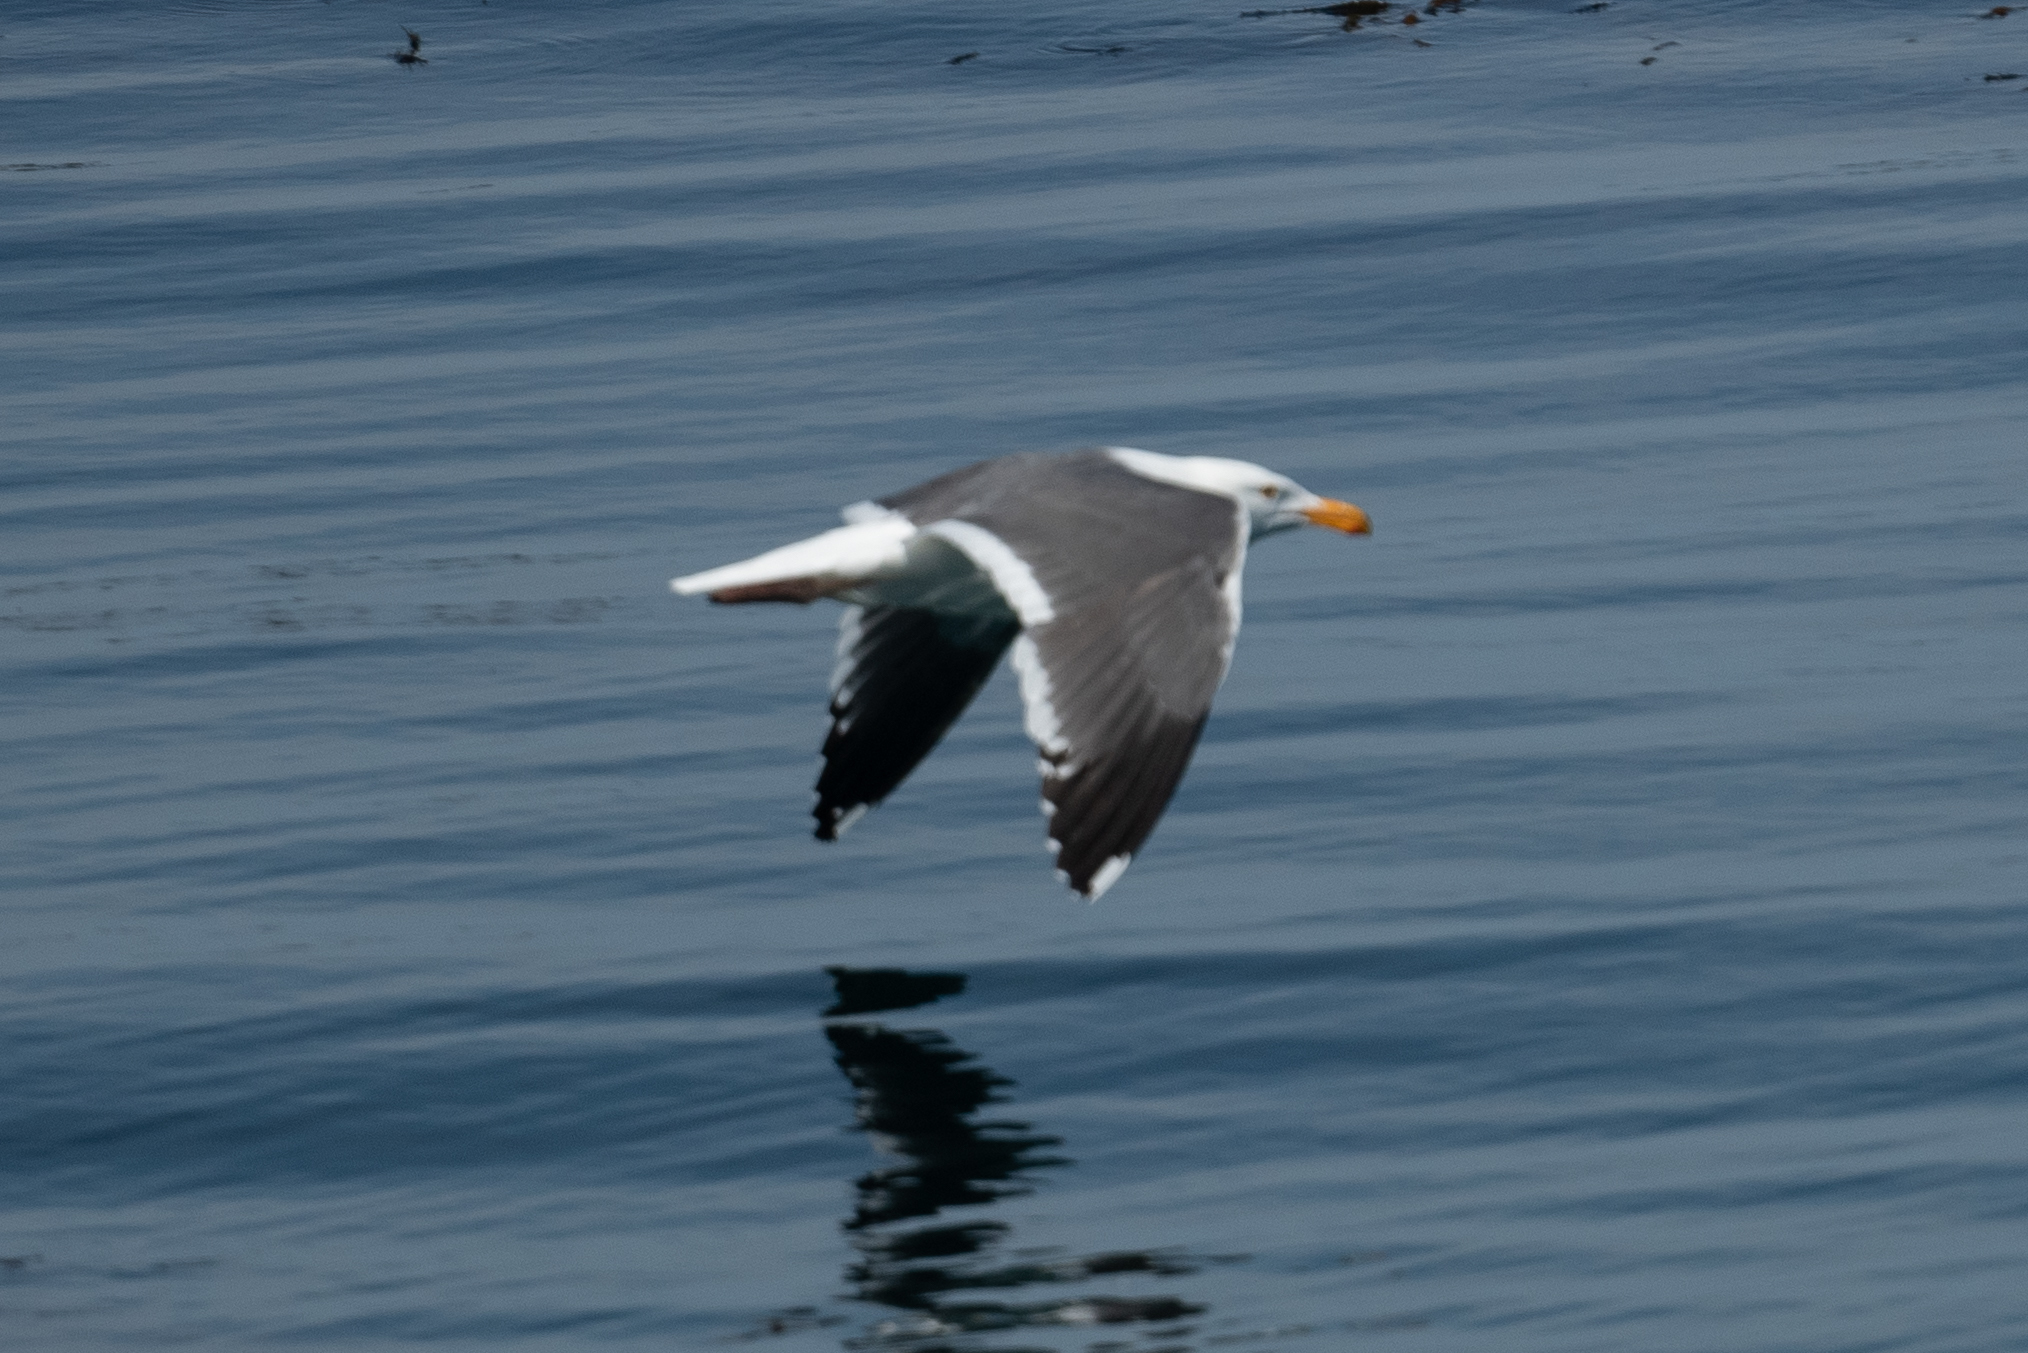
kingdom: Animalia
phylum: Chordata
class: Aves
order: Charadriiformes
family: Laridae
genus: Larus
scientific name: Larus occidentalis
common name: Western gull
